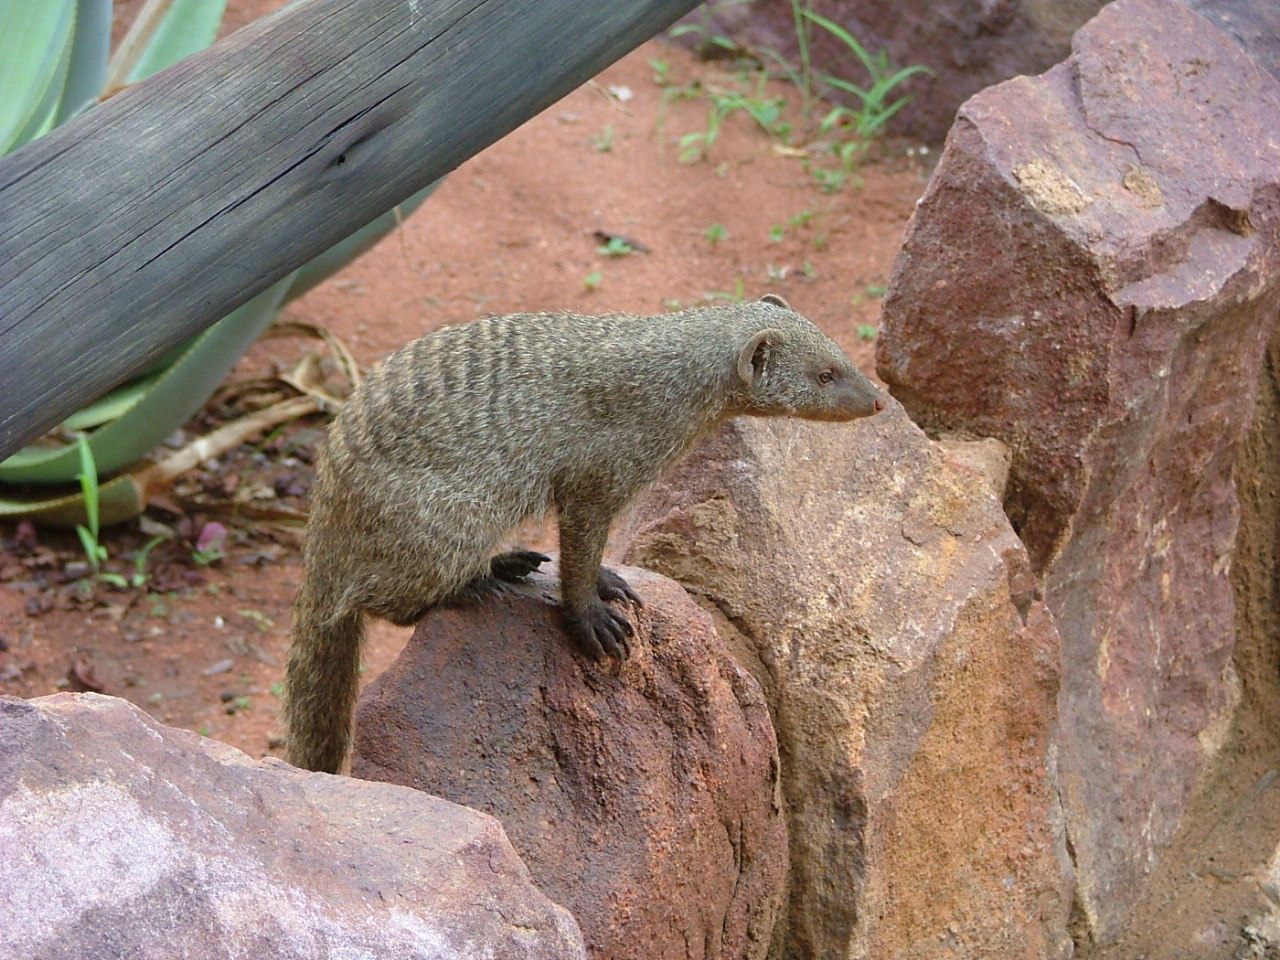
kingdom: Animalia
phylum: Chordata
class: Mammalia
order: Carnivora
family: Herpestidae
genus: Mungos
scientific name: Mungos mungo
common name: Banded mongoose
